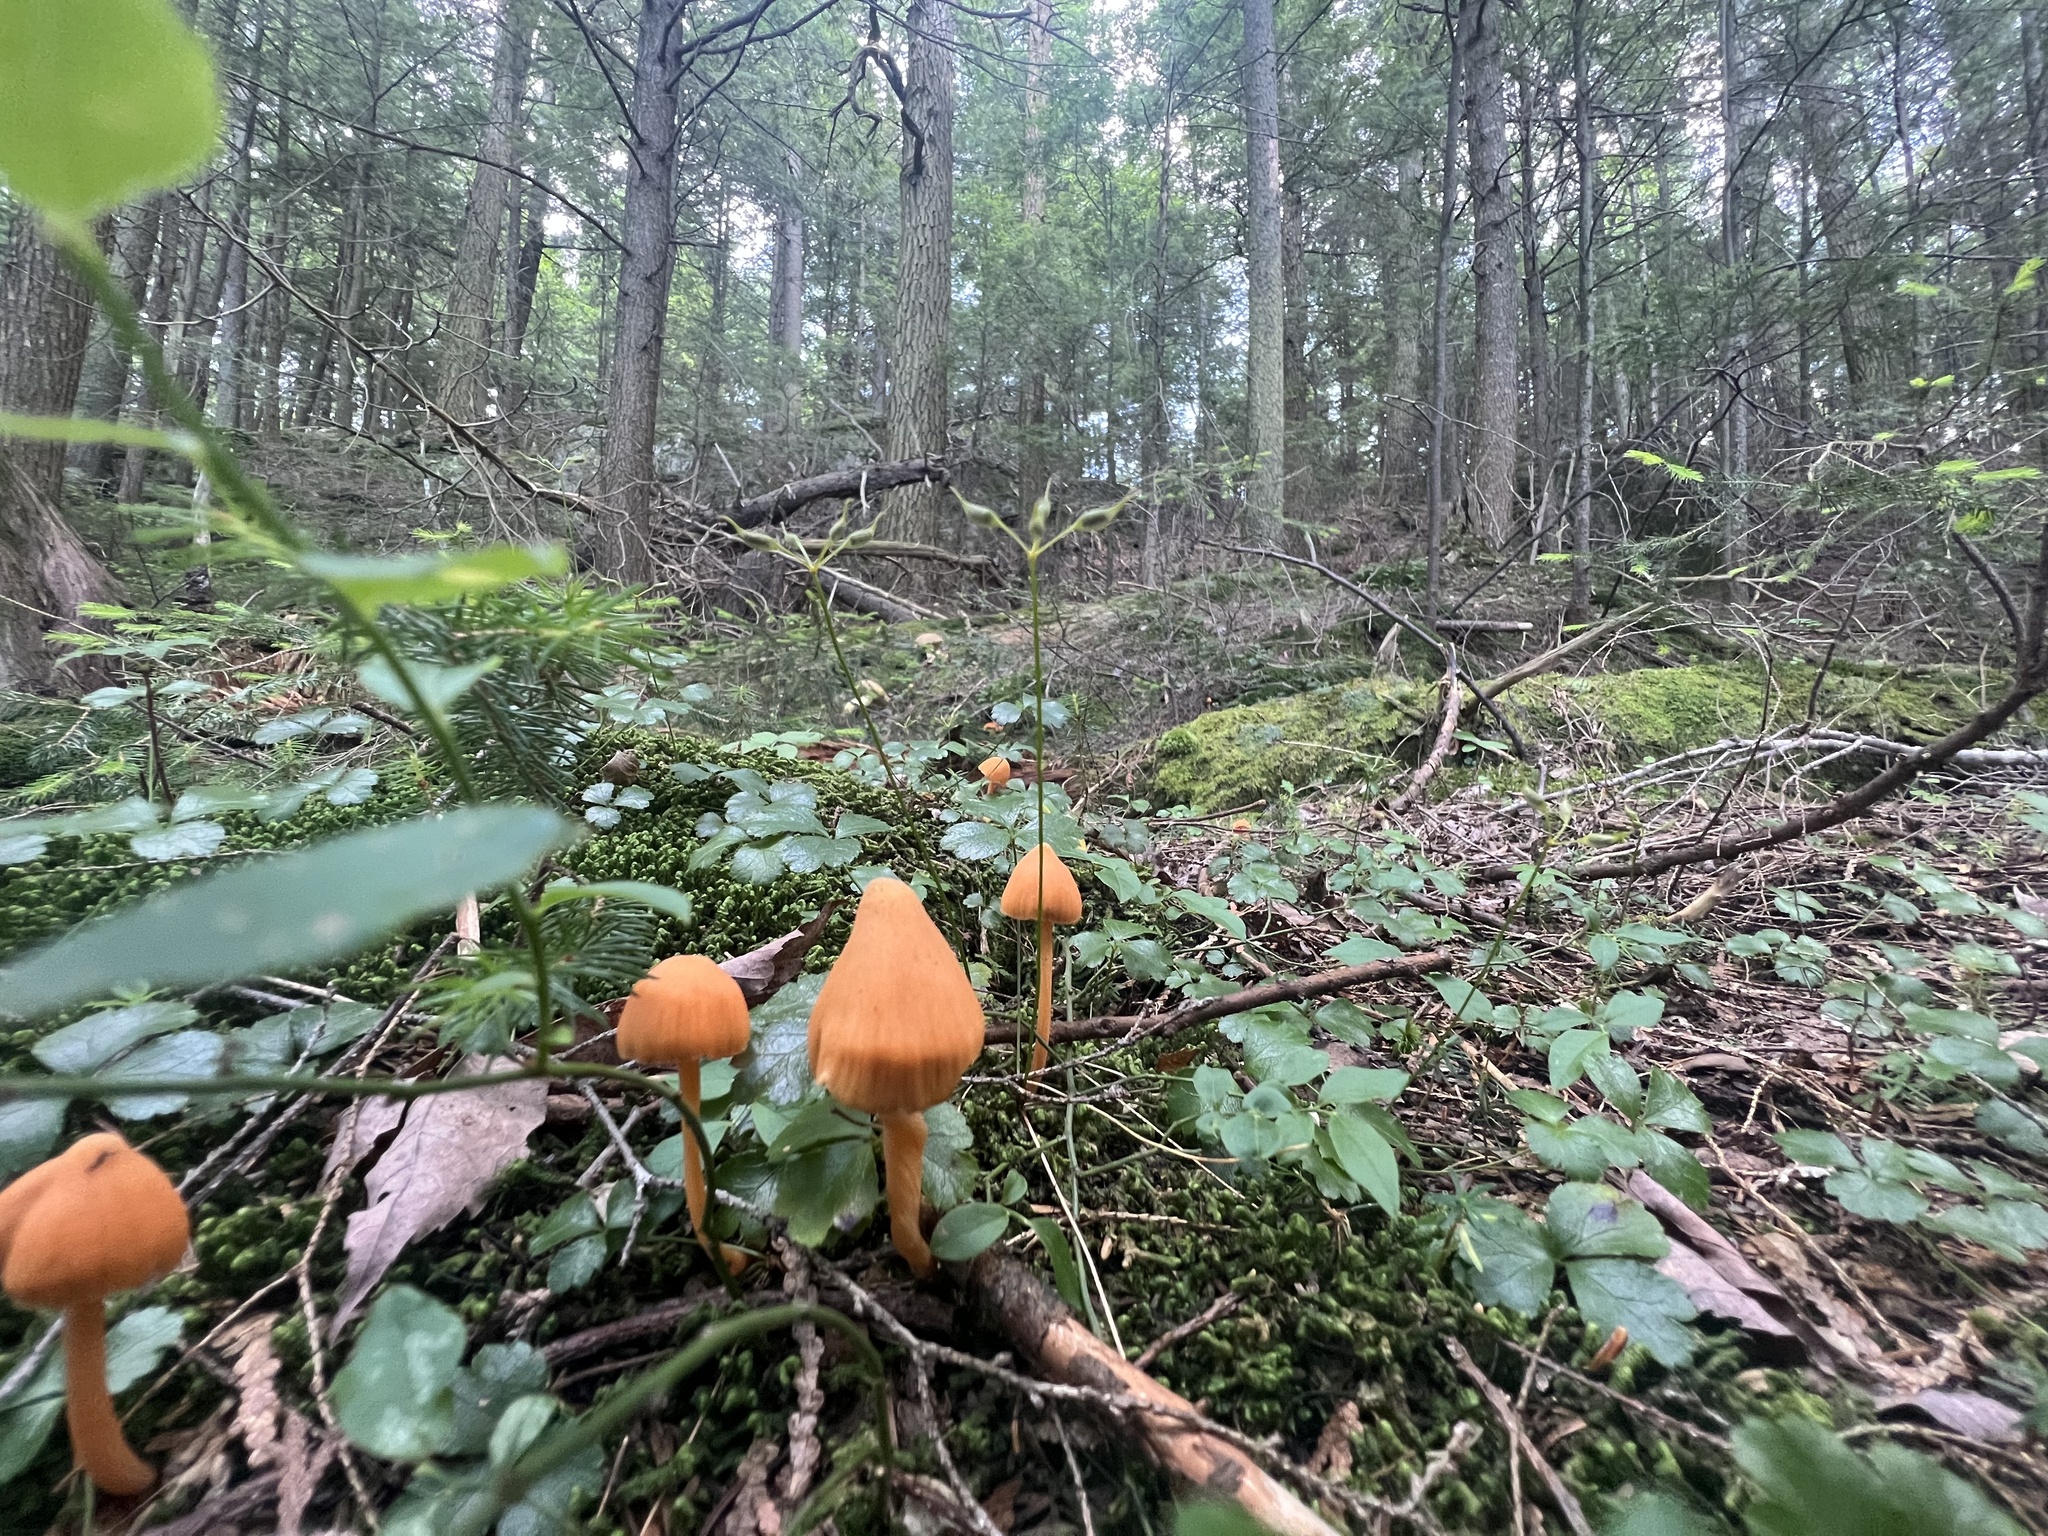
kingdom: Fungi
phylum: Basidiomycota
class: Agaricomycetes
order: Agaricales
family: Entolomataceae
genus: Entoloma
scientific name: Entoloma quadratum
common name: Salmon pinkgill
